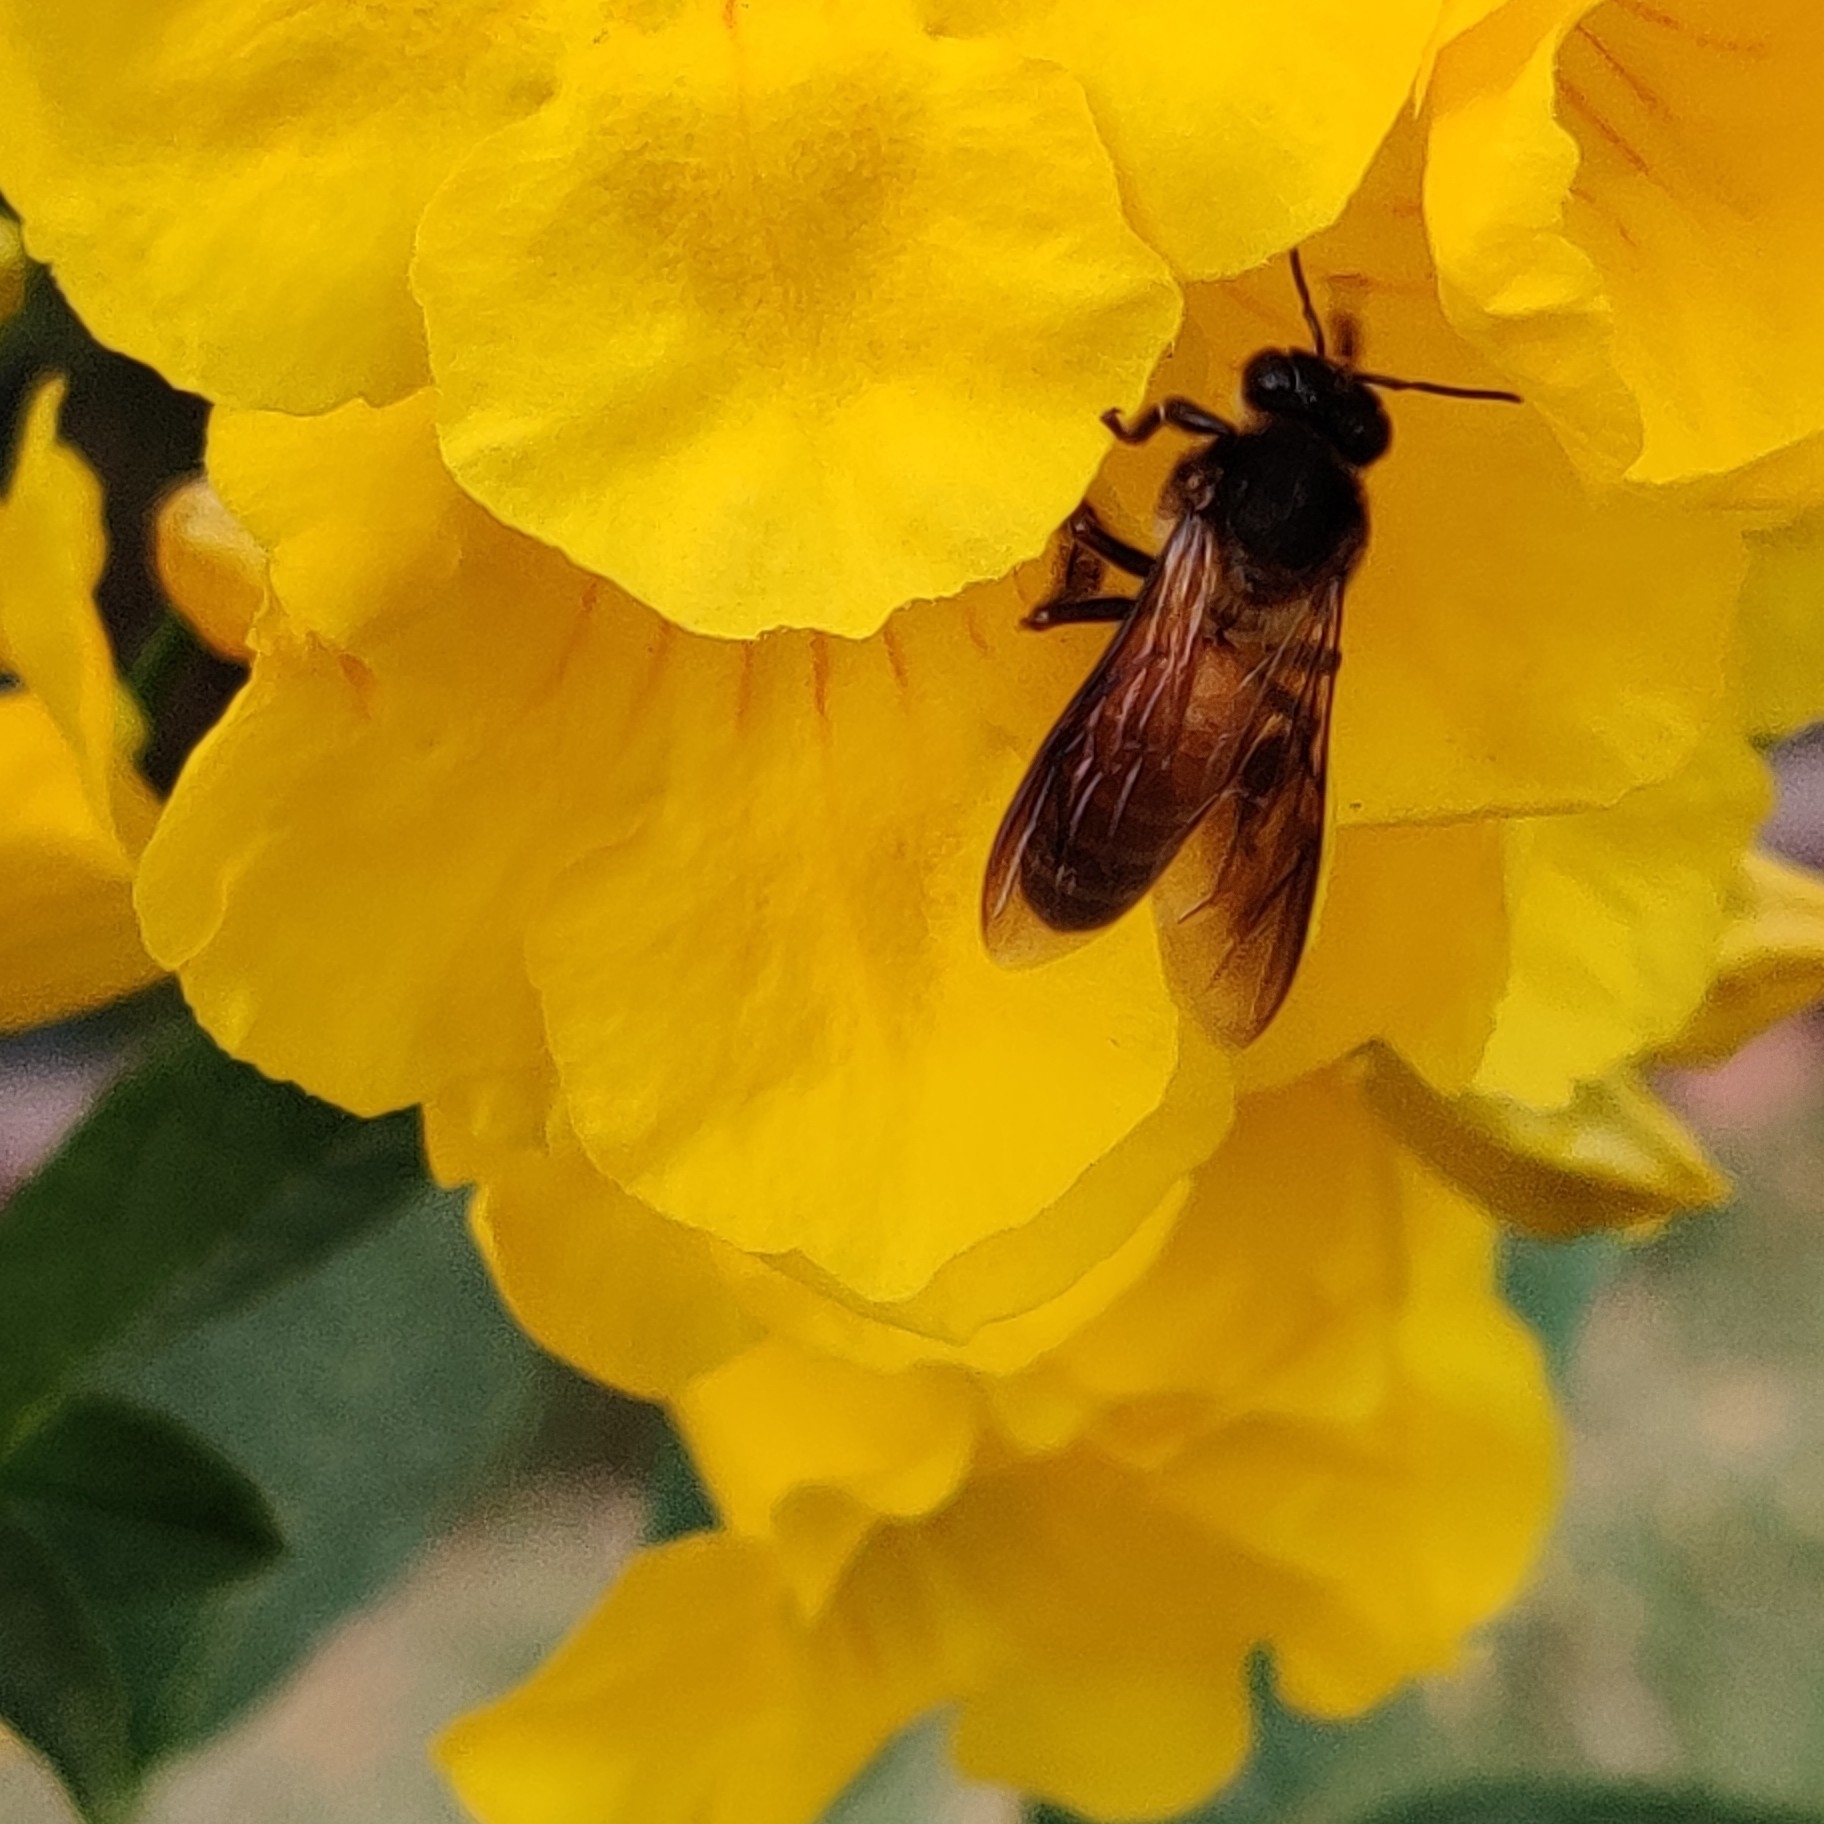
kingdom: Animalia
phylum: Arthropoda
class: Insecta
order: Hymenoptera
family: Apidae
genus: Apis
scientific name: Apis dorsata
